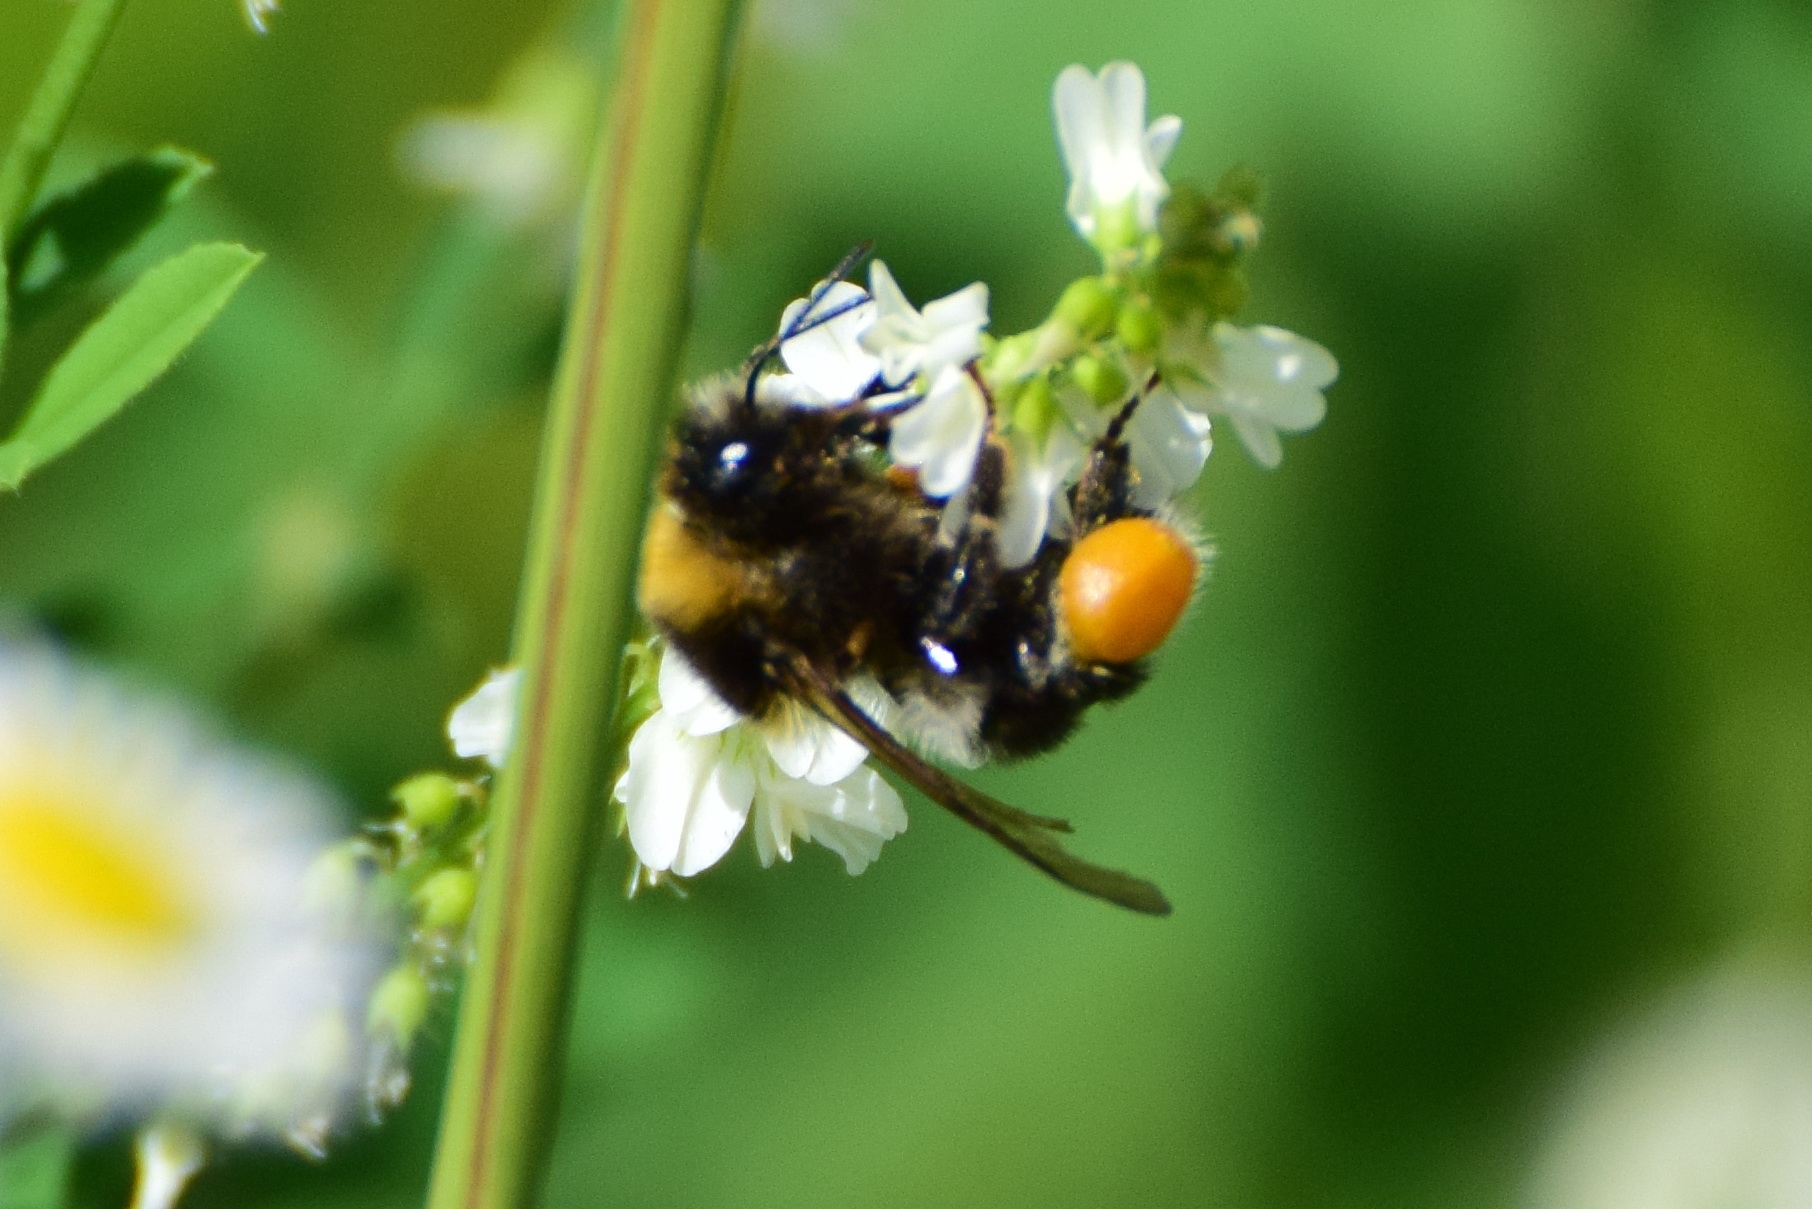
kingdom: Animalia
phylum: Arthropoda
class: Insecta
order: Hymenoptera
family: Apidae
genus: Bombus
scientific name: Bombus
